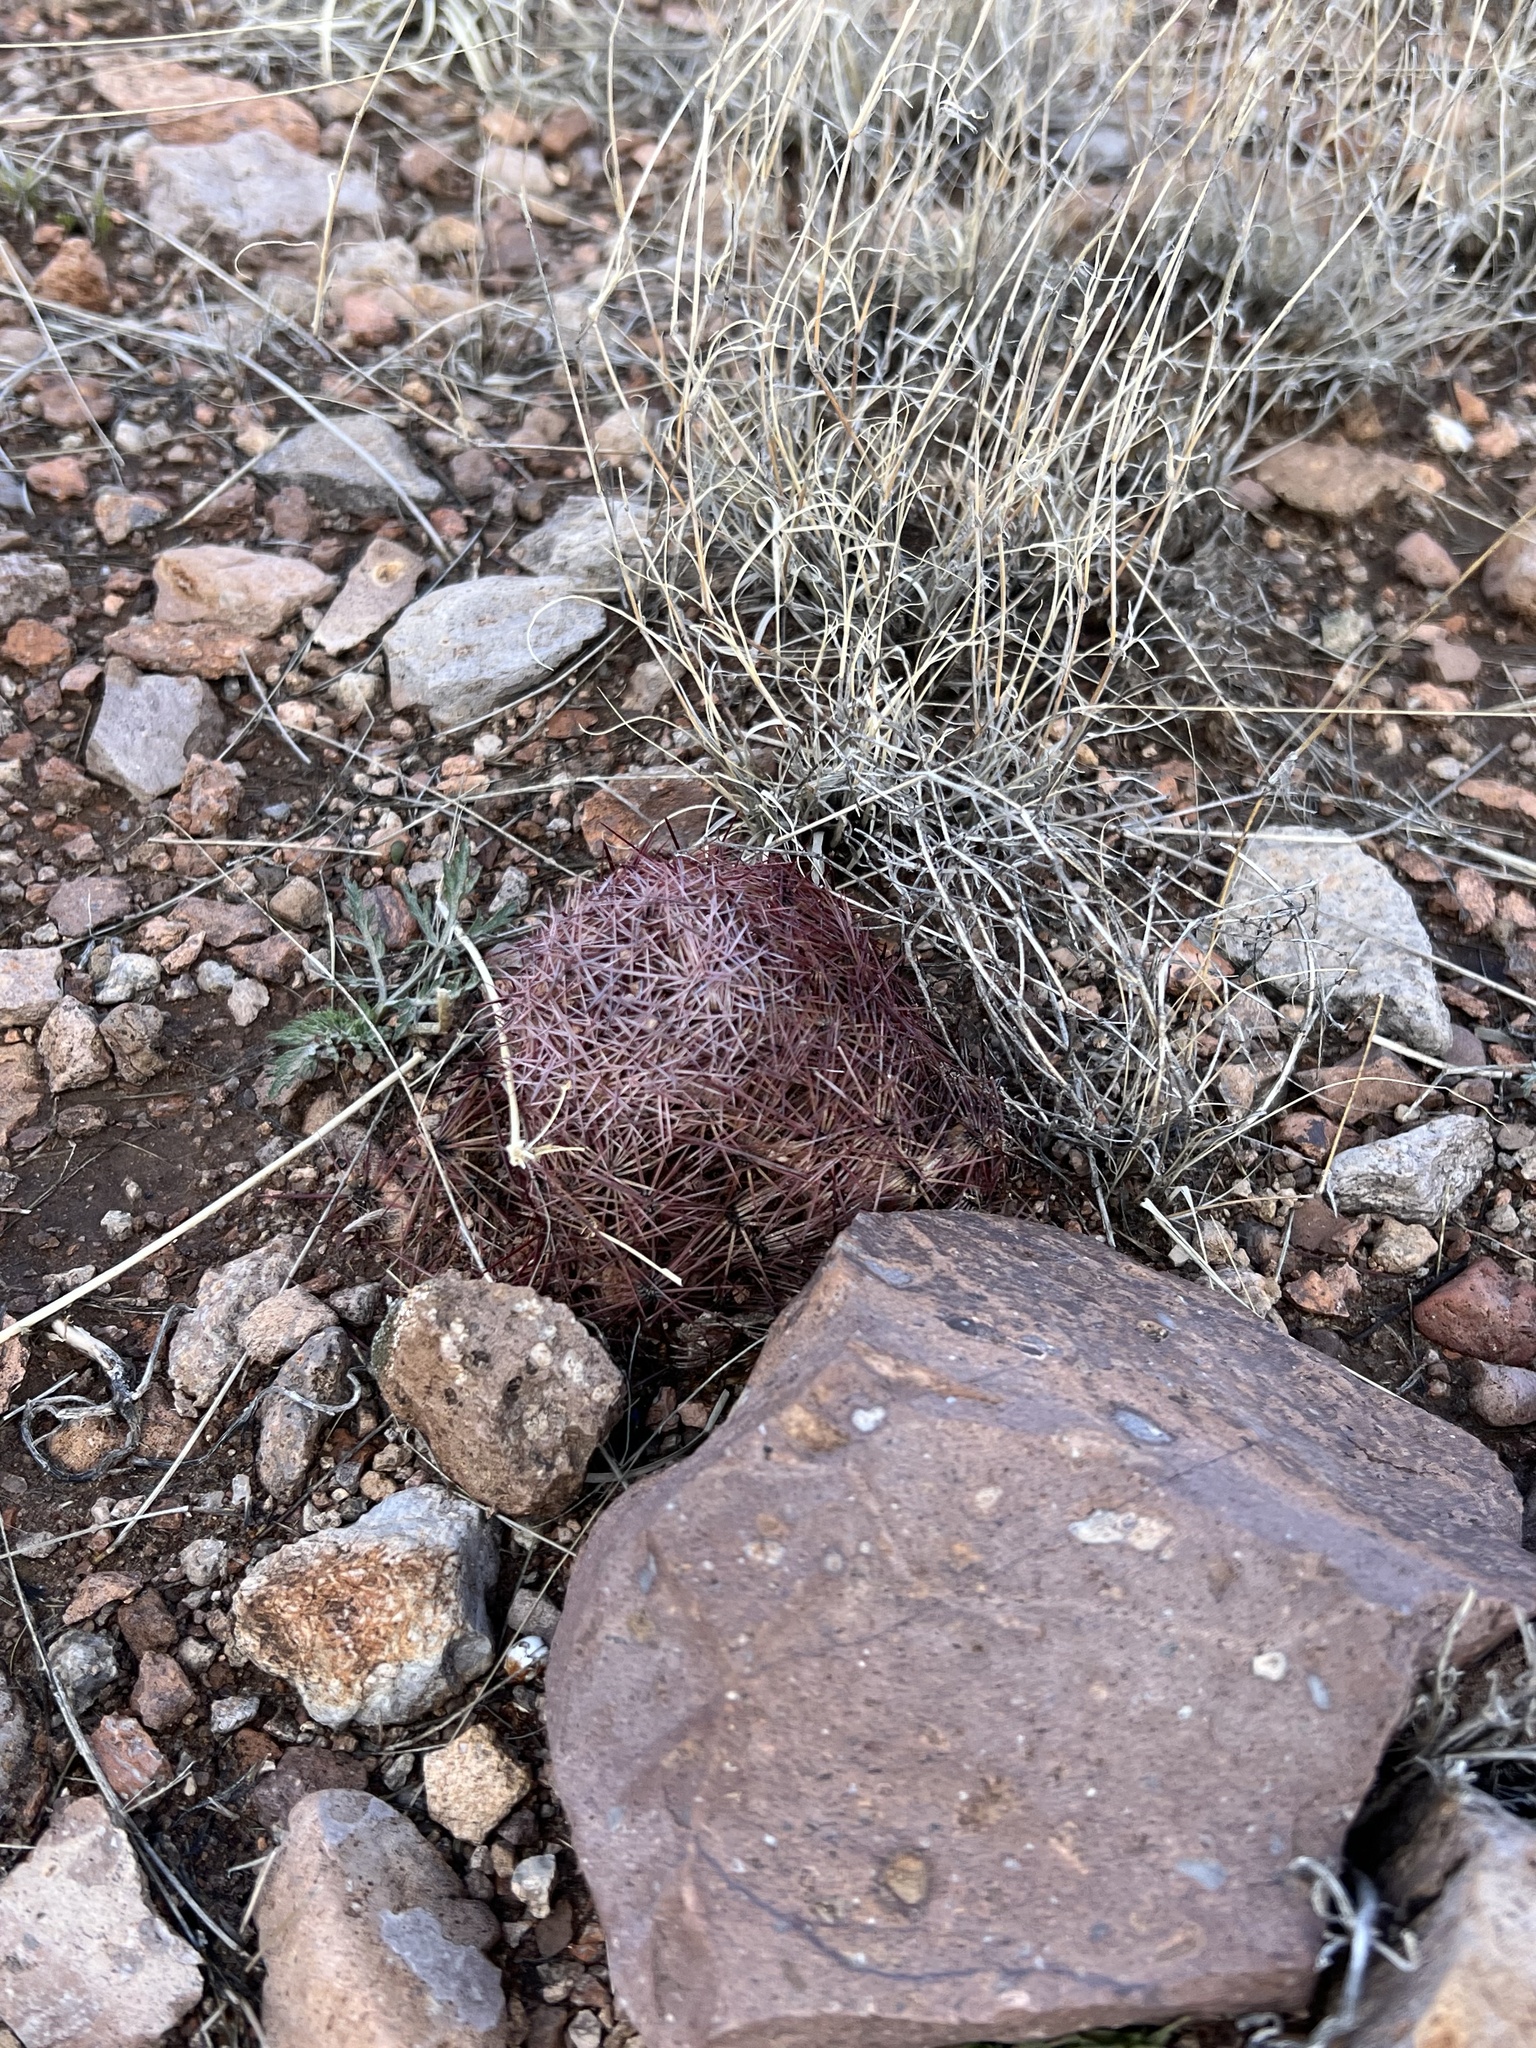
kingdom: Plantae
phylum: Tracheophyta
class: Magnoliopsida
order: Caryophyllales
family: Cactaceae
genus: Sclerocactus
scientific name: Sclerocactus johnsonii
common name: Eight-spine fishhook cactus
